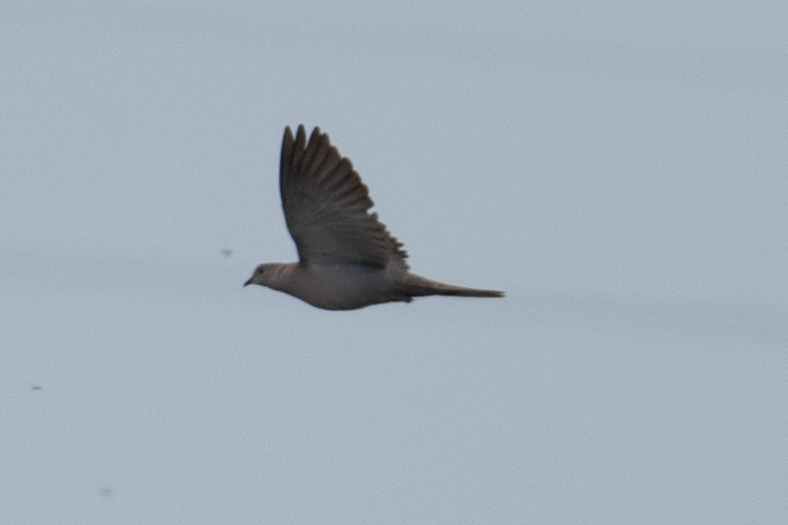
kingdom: Animalia
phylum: Chordata
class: Aves
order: Columbiformes
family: Columbidae
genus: Streptopelia
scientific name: Streptopelia decaocto
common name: Eurasian collared dove
